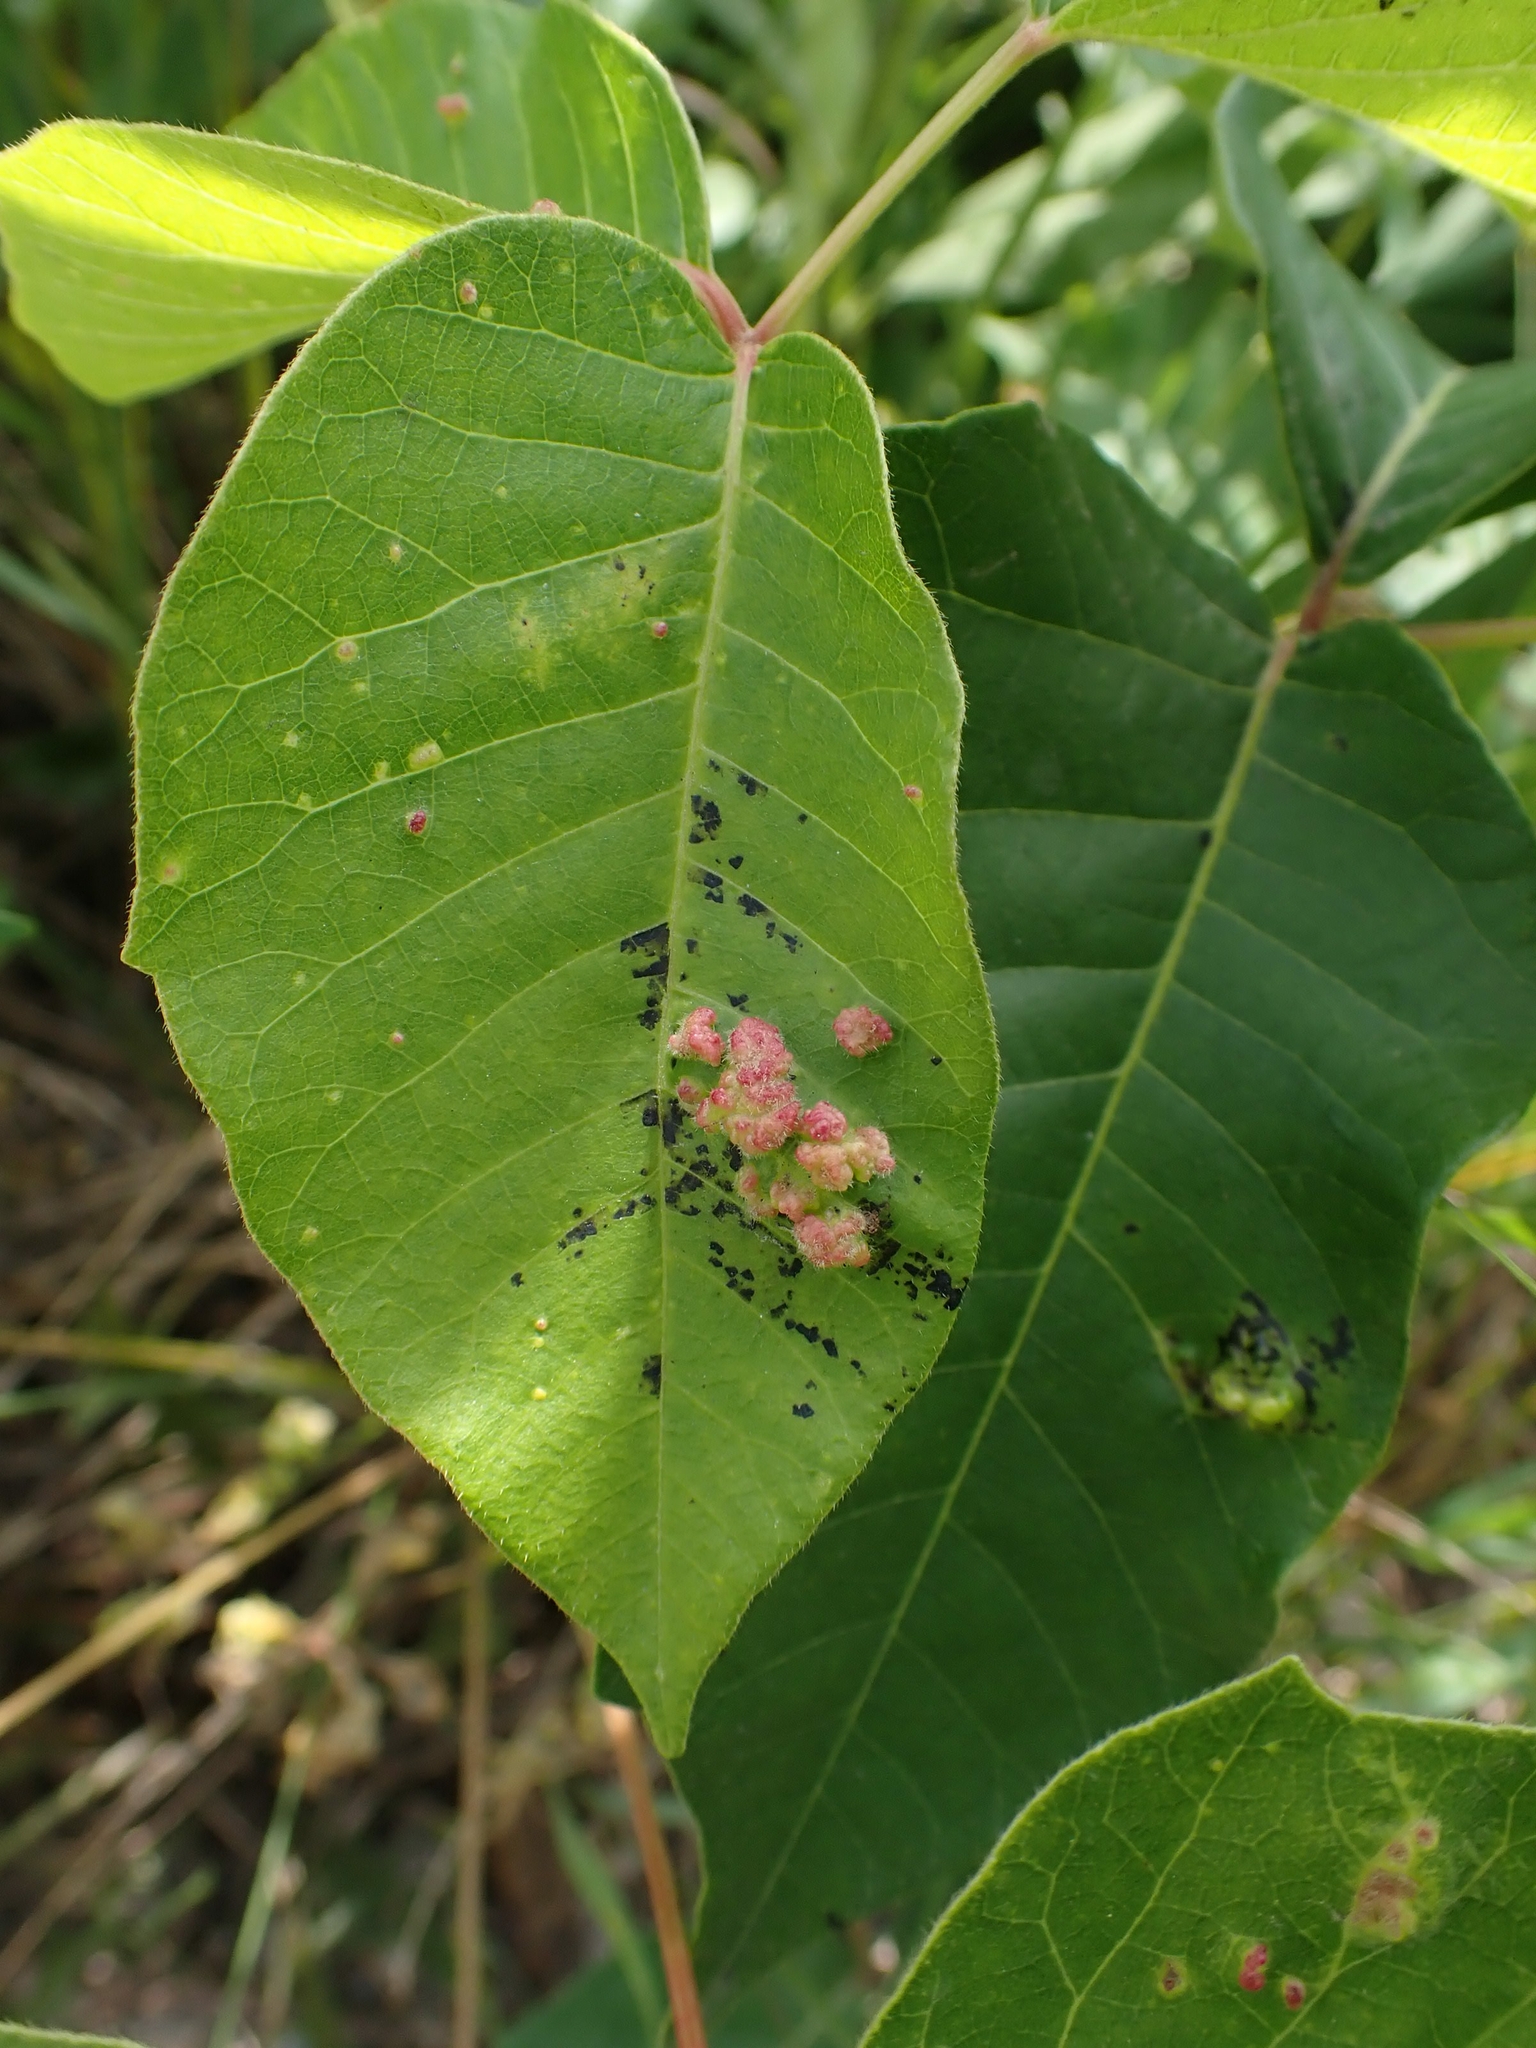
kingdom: Animalia
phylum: Arthropoda
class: Arachnida
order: Trombidiformes
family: Eriophyidae
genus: Aculops
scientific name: Aculops
